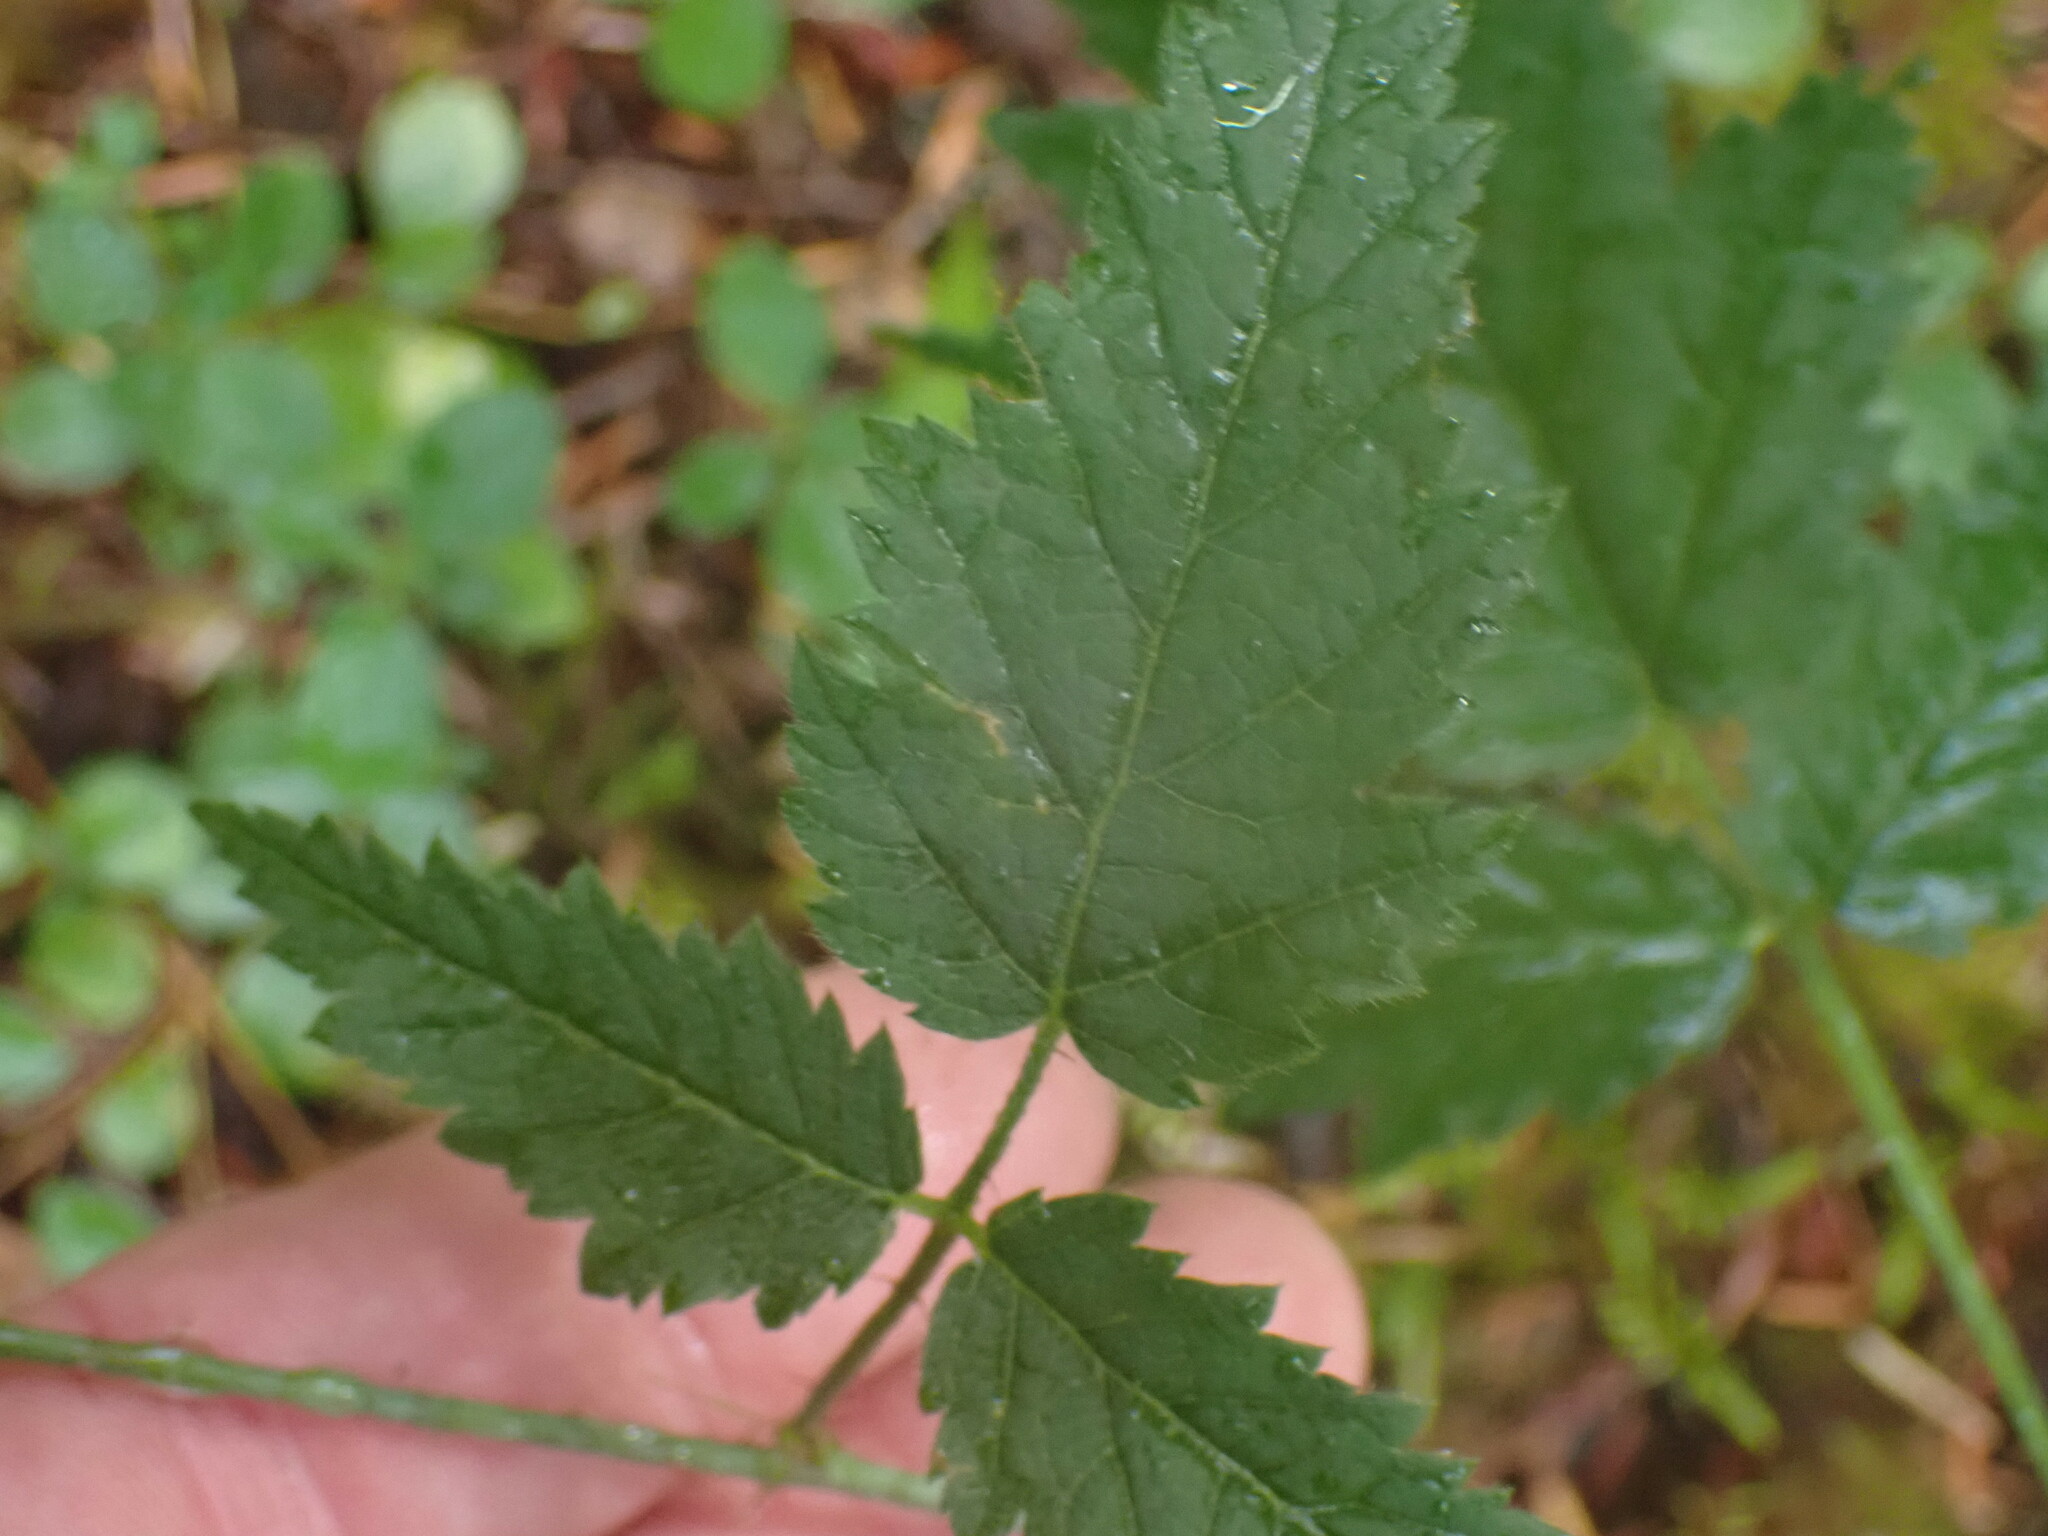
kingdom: Plantae
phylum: Tracheophyta
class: Magnoliopsida
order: Rosales
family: Rosaceae
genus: Rubus
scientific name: Rubus ursinus
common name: Pacific blackberry
